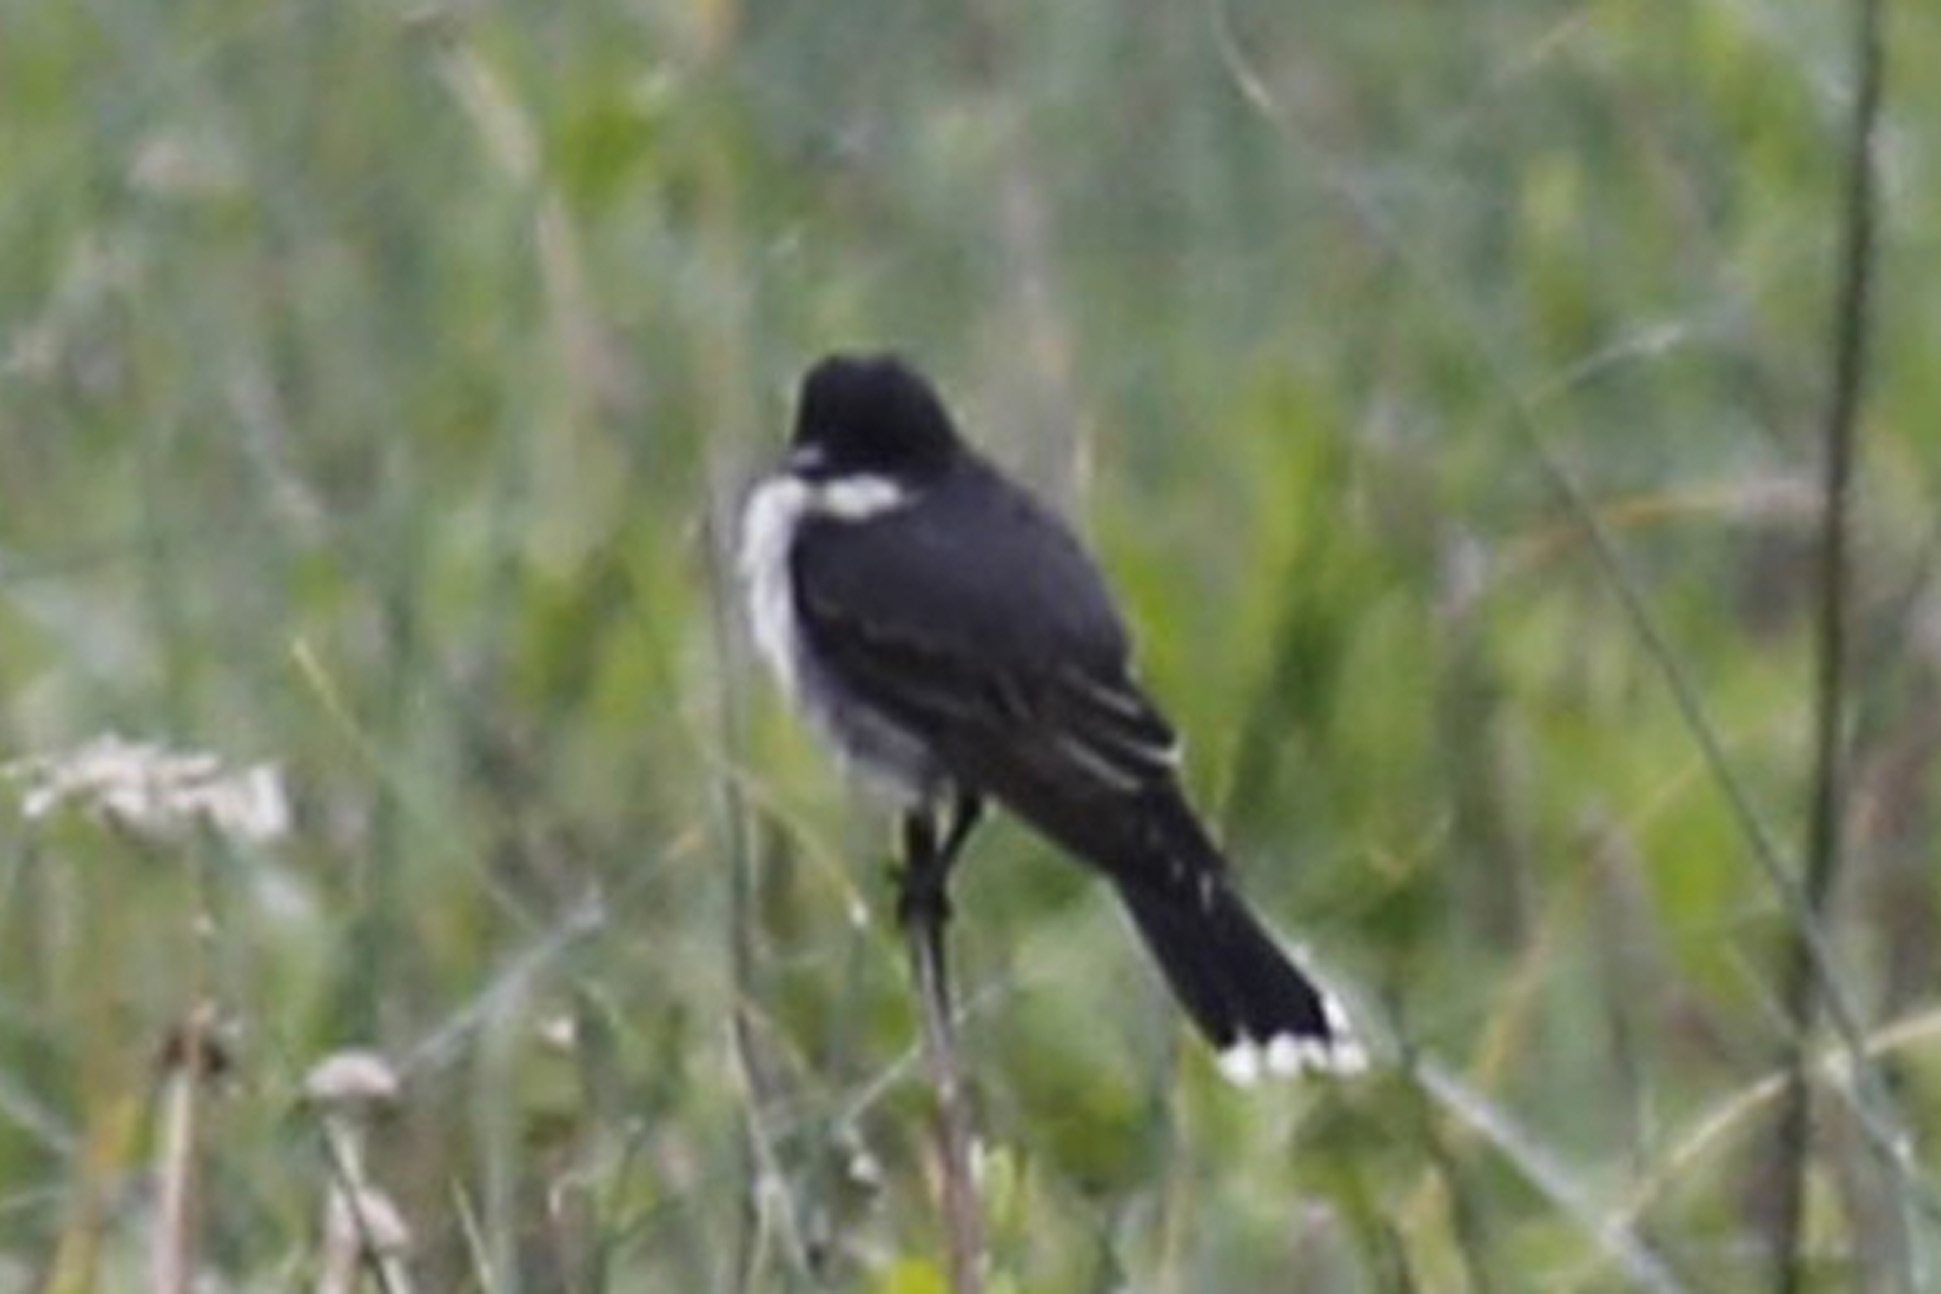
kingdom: Animalia
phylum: Chordata
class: Aves
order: Passeriformes
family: Tyrannidae
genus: Tyrannus
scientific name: Tyrannus tyrannus
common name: Eastern kingbird
